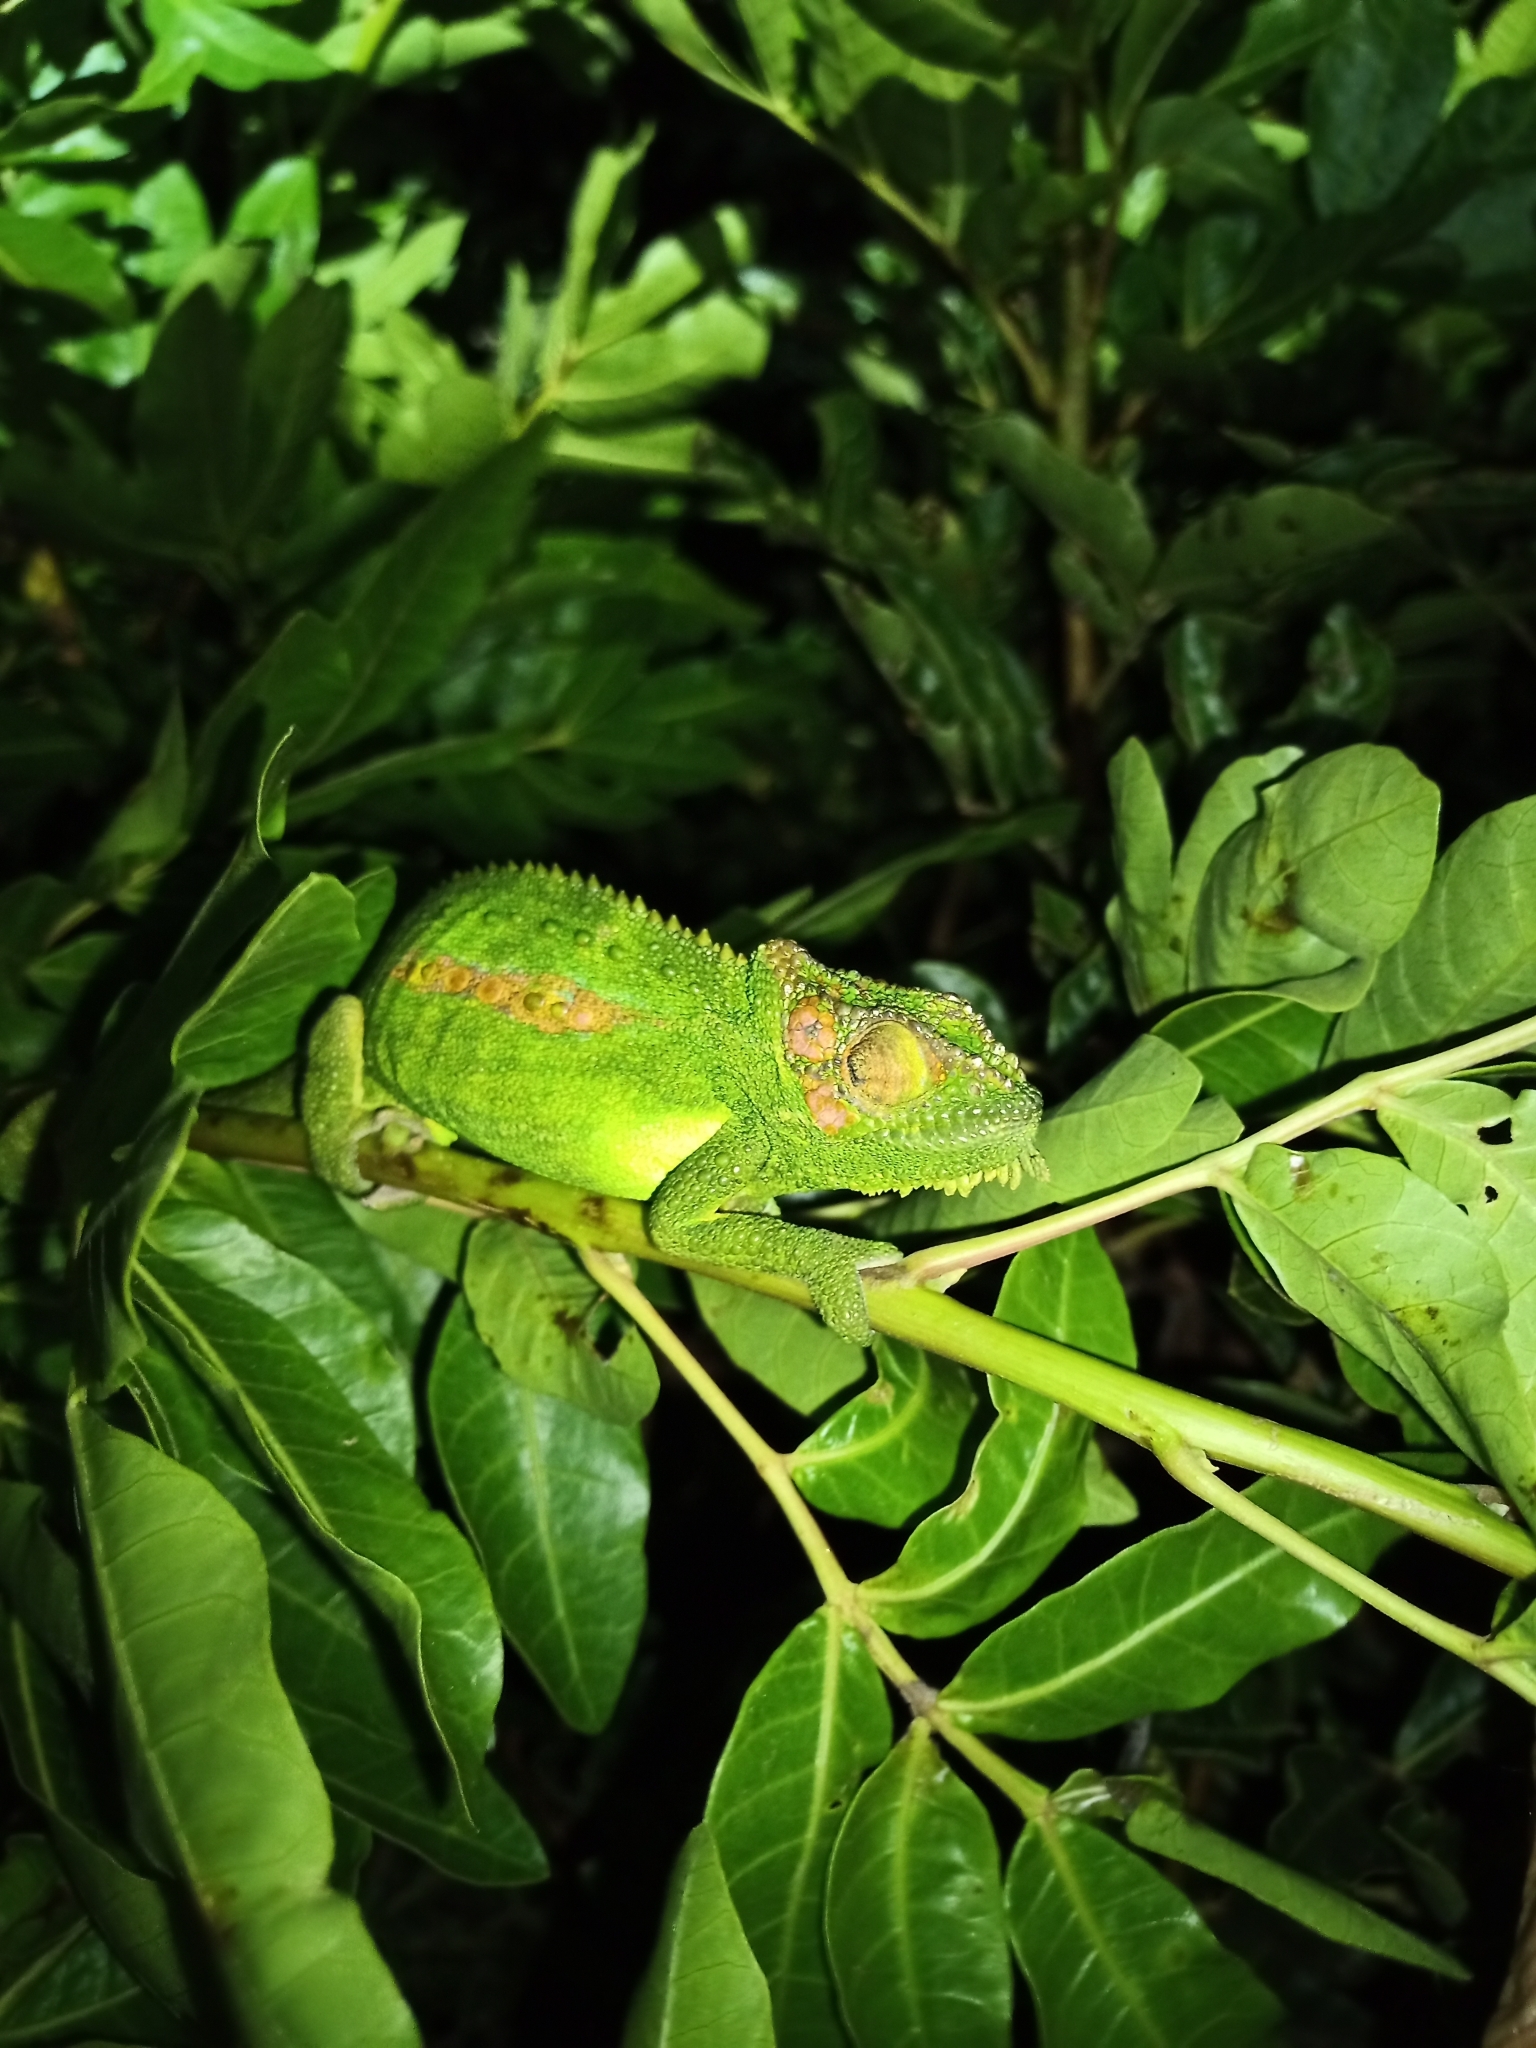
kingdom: Animalia
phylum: Chordata
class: Squamata
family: Chamaeleonidae
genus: Bradypodion
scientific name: Bradypodion pumilum
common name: Cape dwarf chameleon
